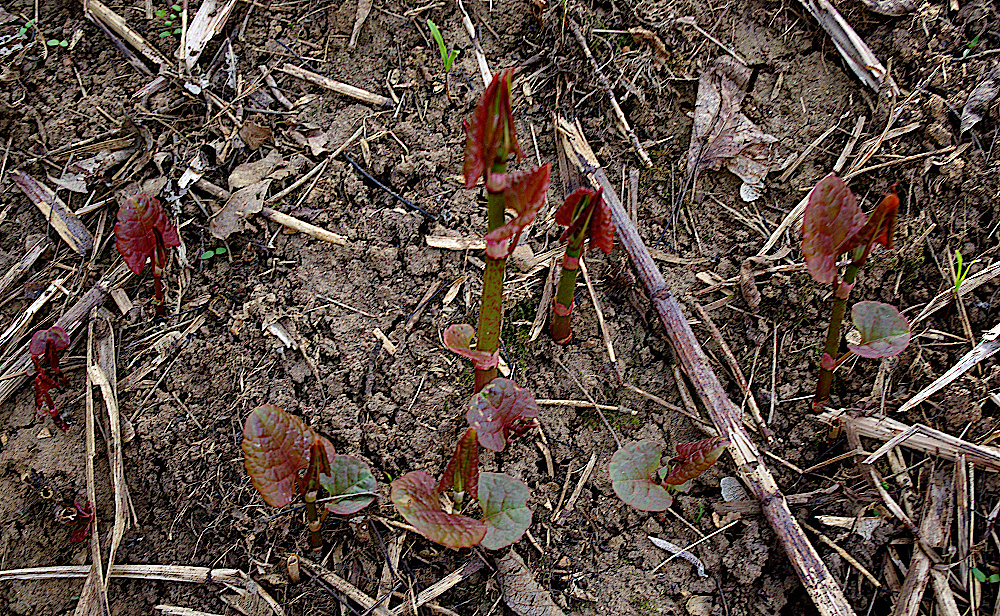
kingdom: Plantae
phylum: Tracheophyta
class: Magnoliopsida
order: Caryophyllales
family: Polygonaceae
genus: Reynoutria
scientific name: Reynoutria bohemica
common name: Bohemian knotweed
